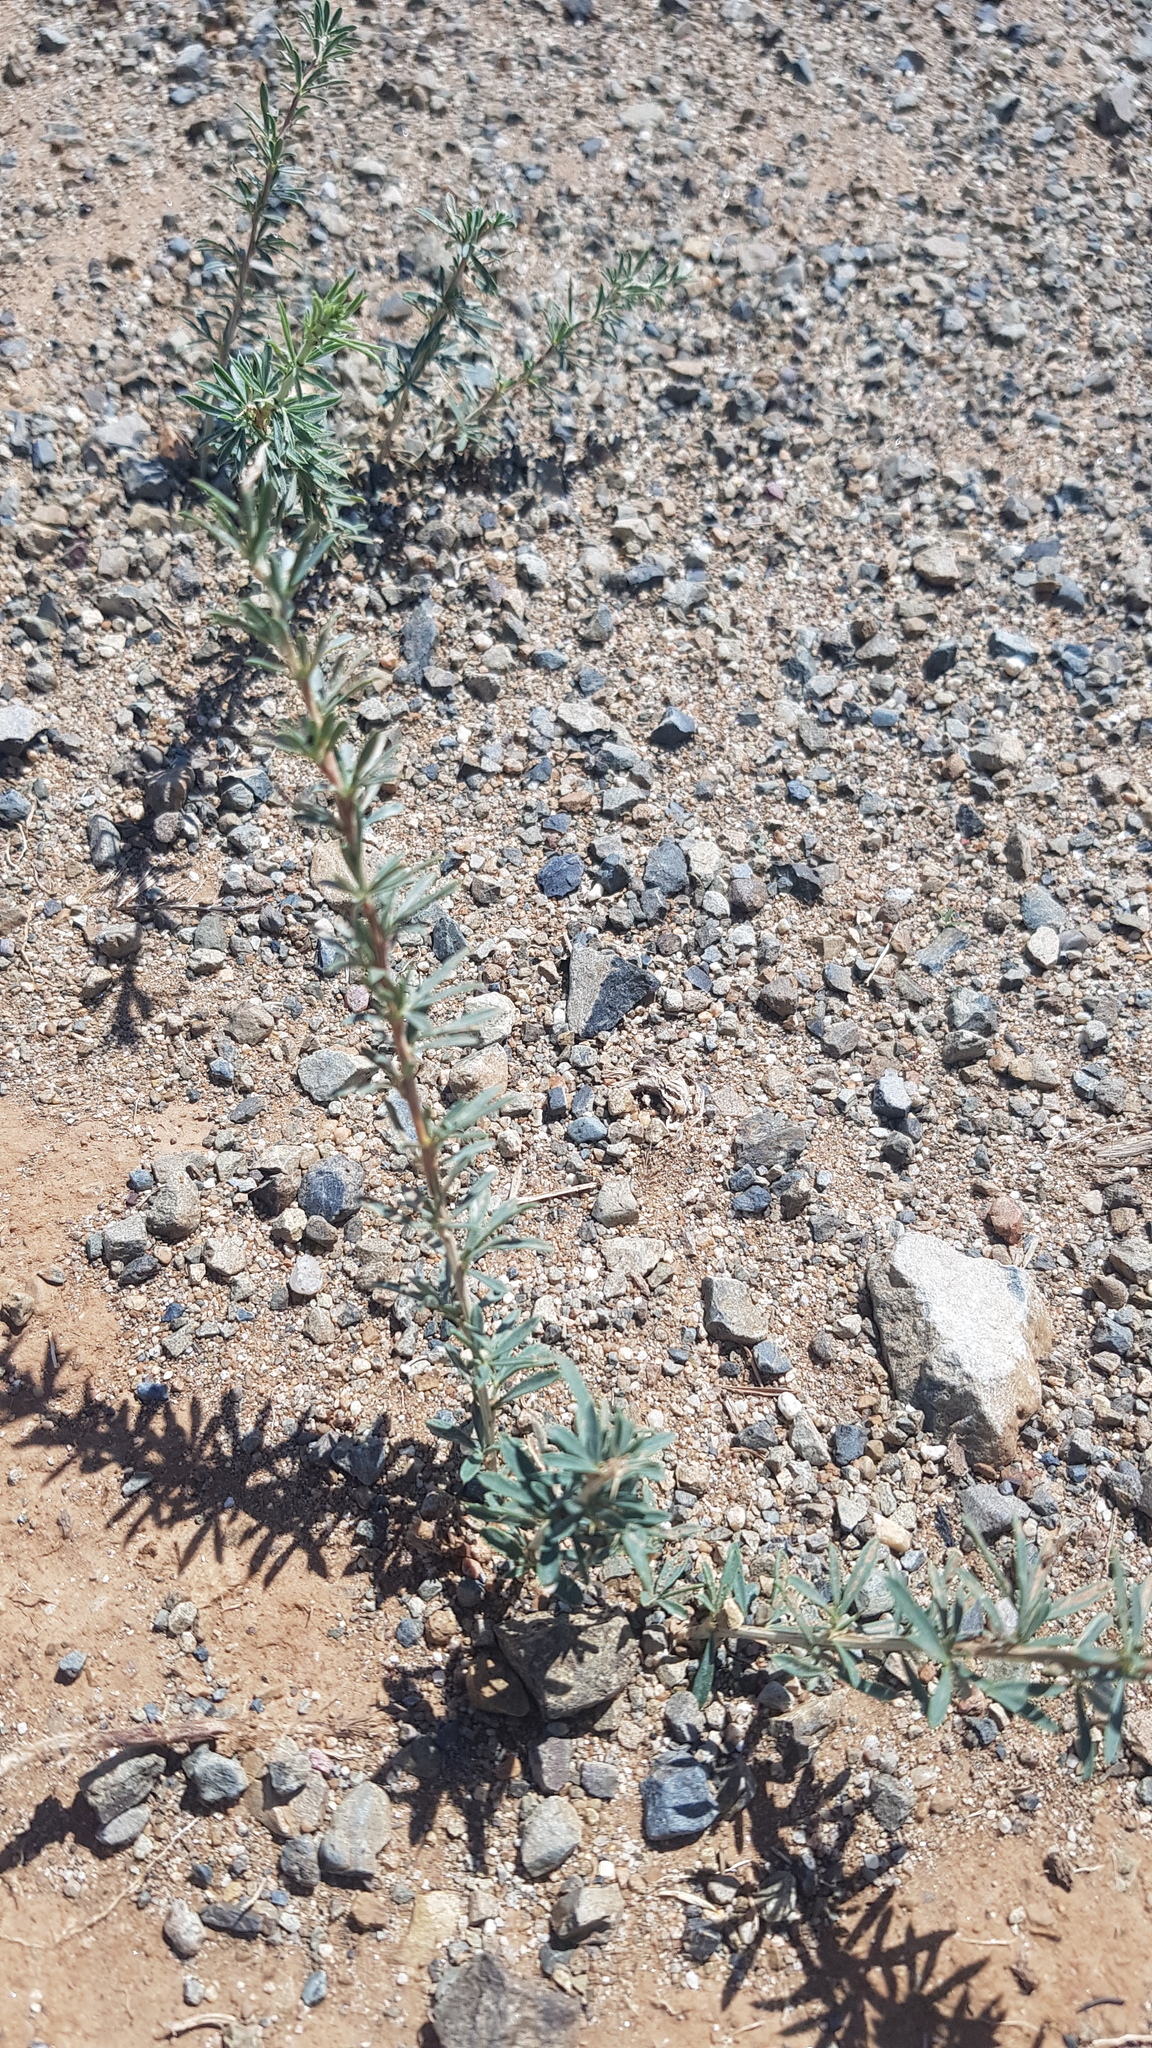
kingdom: Plantae
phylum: Tracheophyta
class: Magnoliopsida
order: Fabales
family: Fabaceae
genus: Caragana
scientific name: Caragana stenophylla
